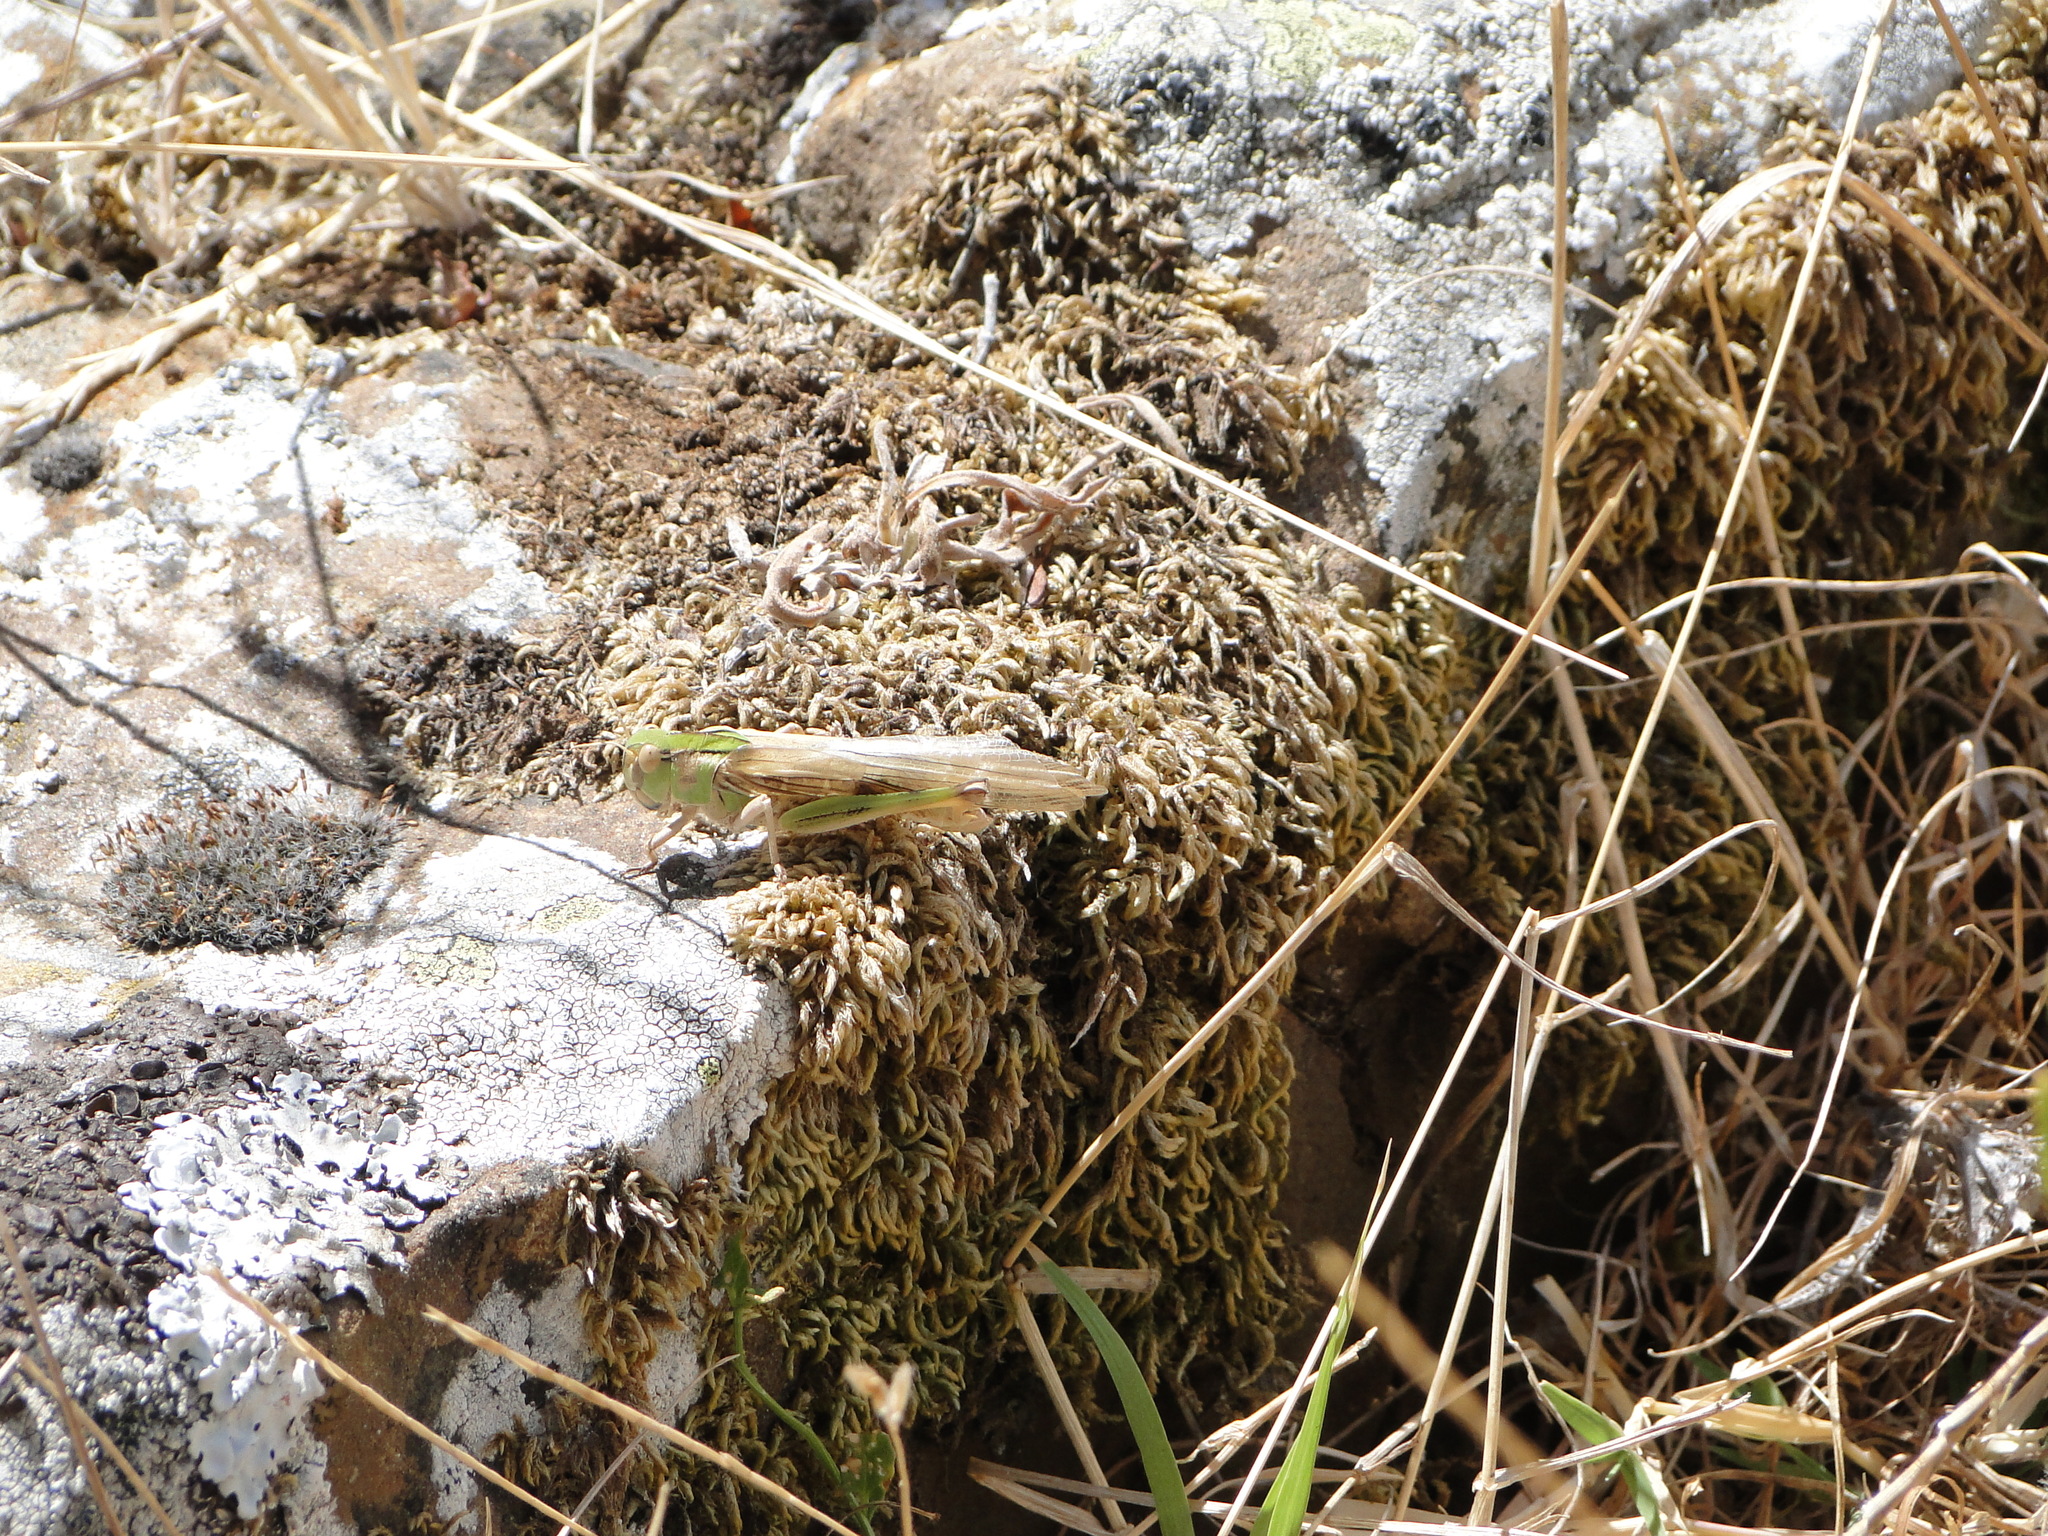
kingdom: Animalia
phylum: Arthropoda
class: Insecta
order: Orthoptera
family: Acrididae
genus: Locusta
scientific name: Locusta migratoria
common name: Migratory locust
